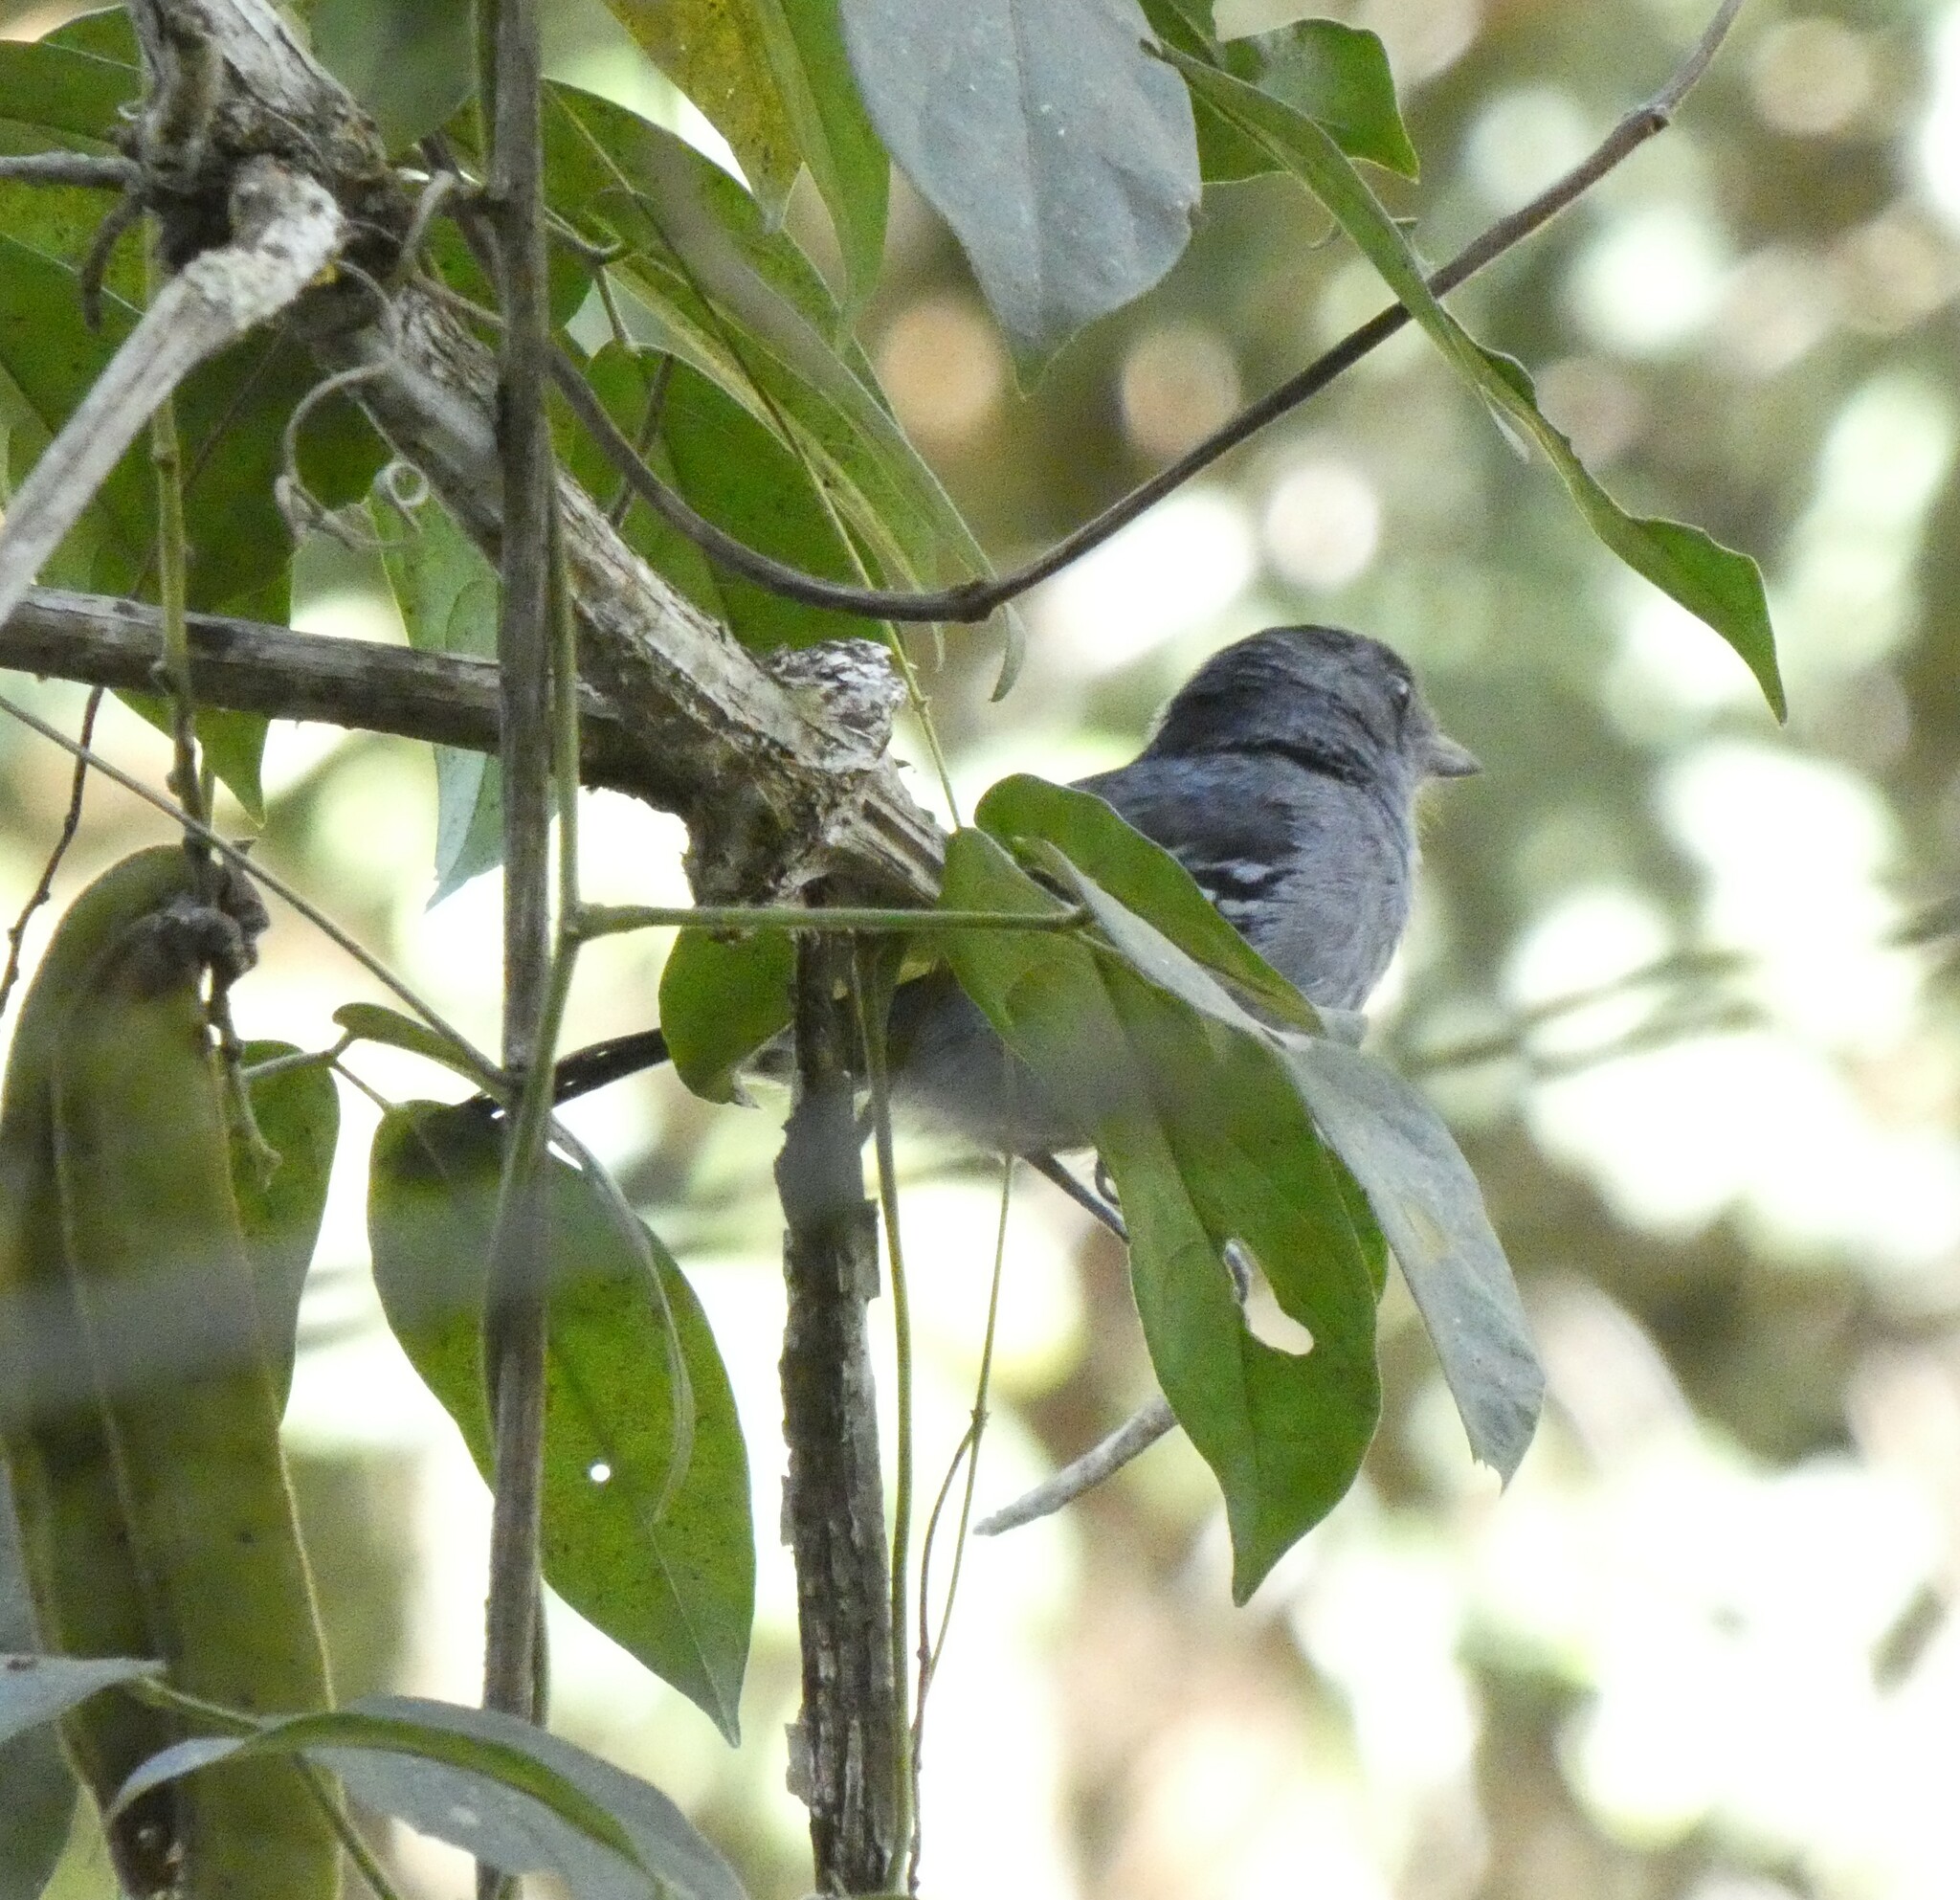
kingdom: Animalia
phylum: Chordata
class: Aves
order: Passeriformes
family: Thamnophilidae
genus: Thamnophilus
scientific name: Thamnophilus caerulescens
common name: Variable antshrike
